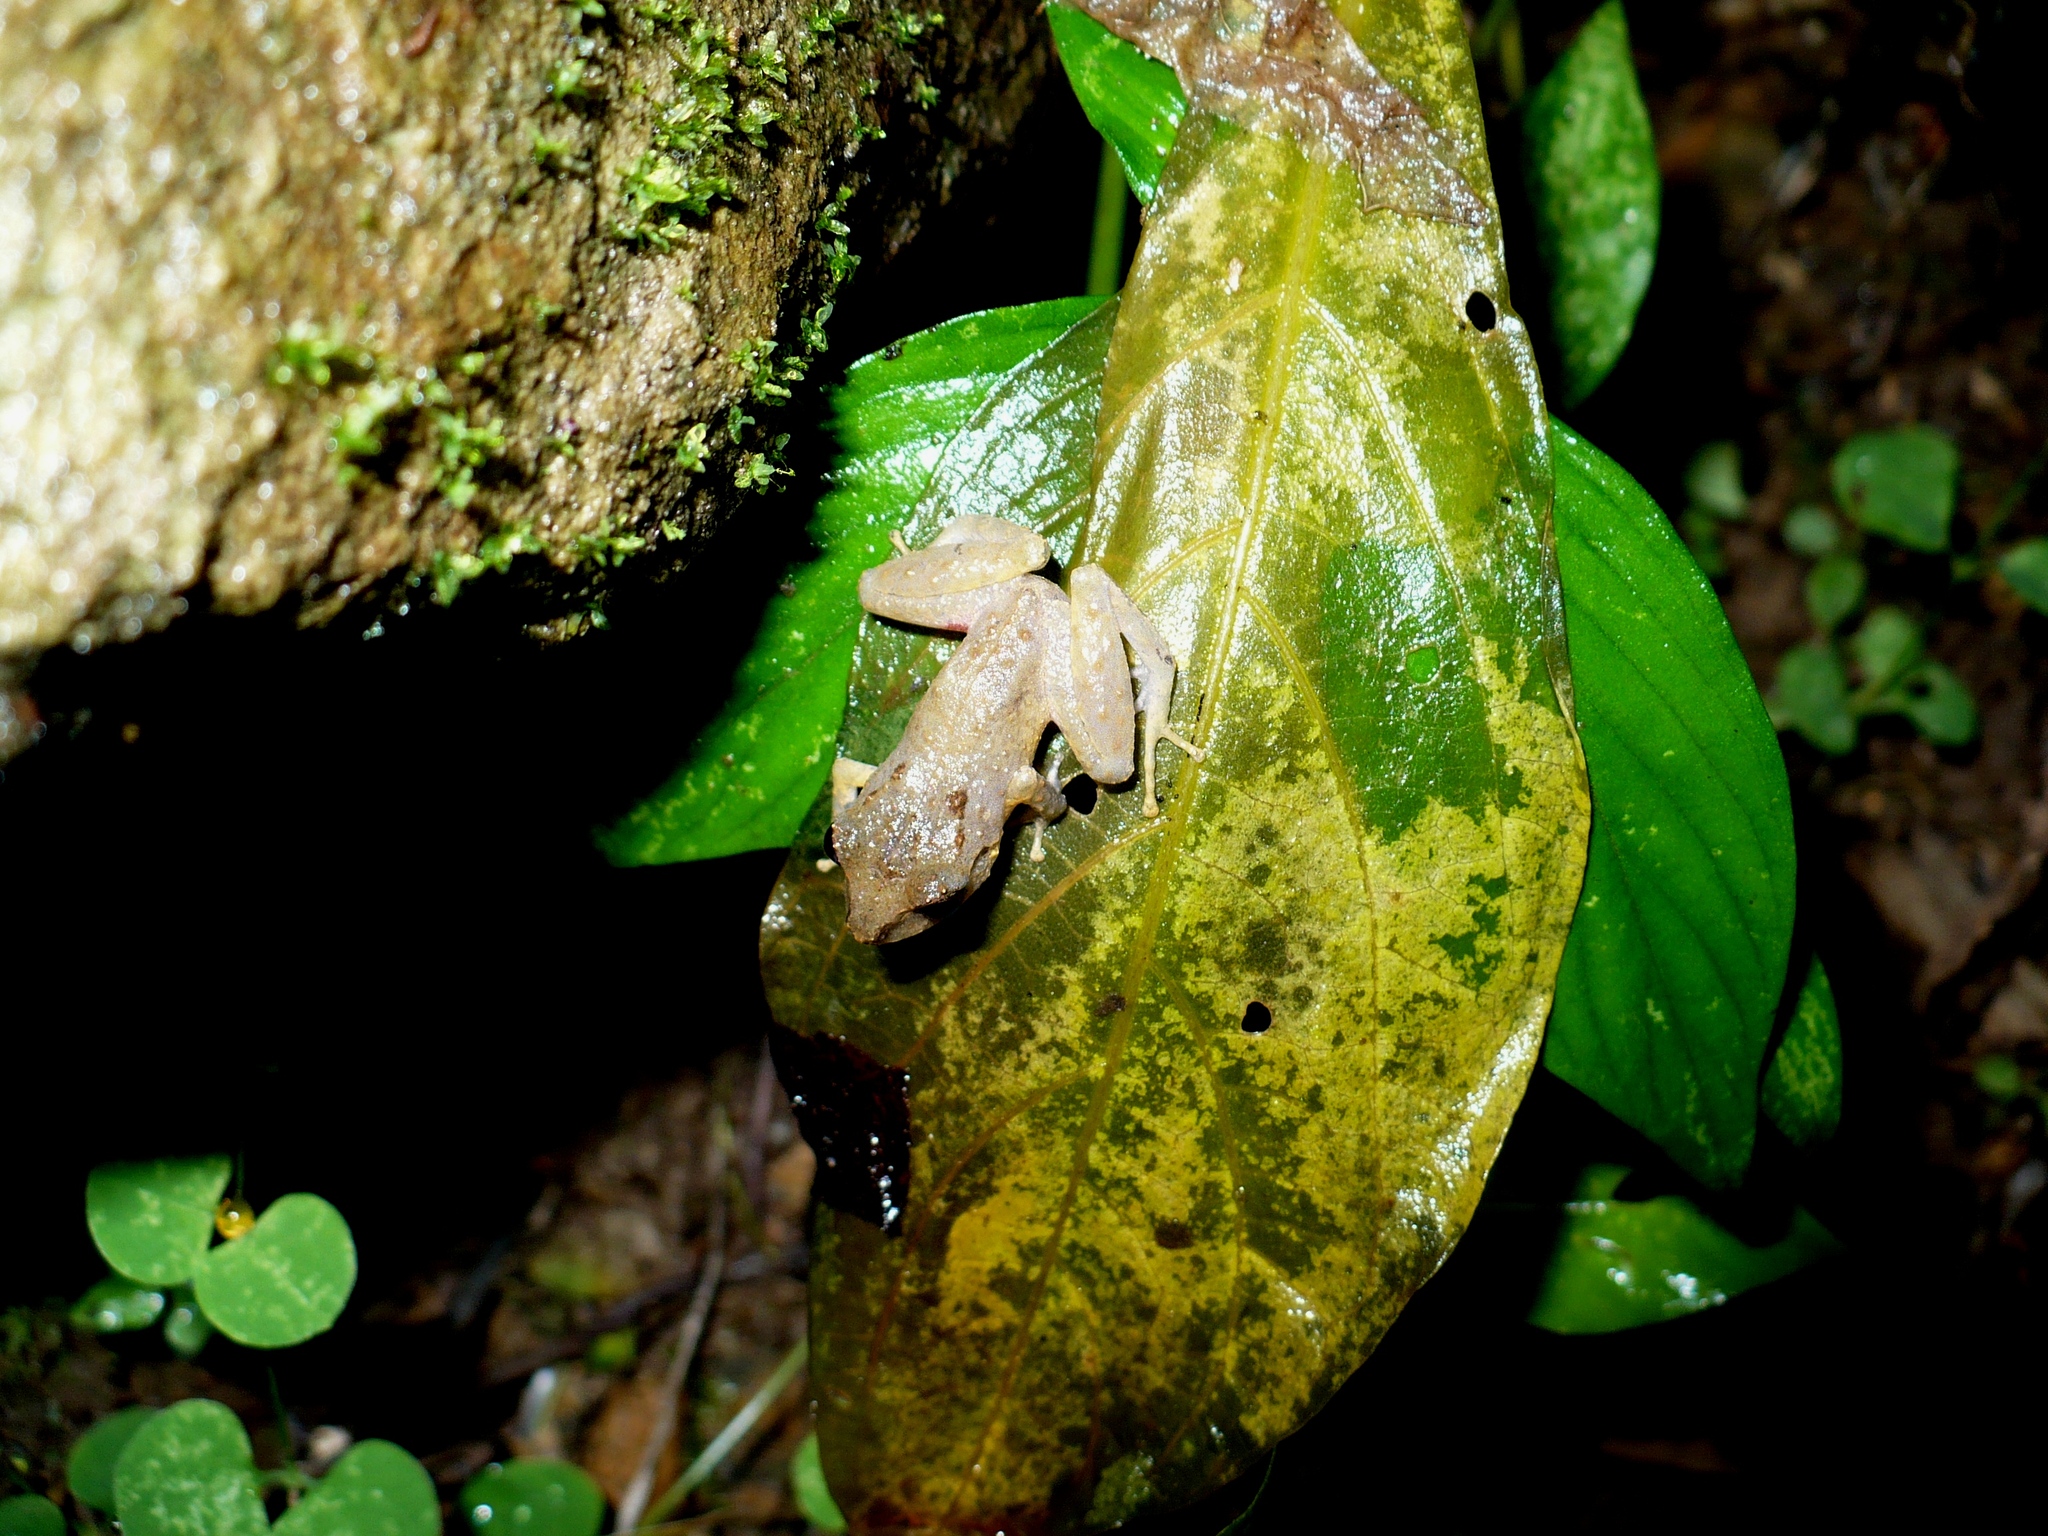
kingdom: Animalia
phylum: Chordata
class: Amphibia
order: Anura
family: Craugastoridae
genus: Pristimantis
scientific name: Pristimantis urichi
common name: Lesser antilles robber frog
